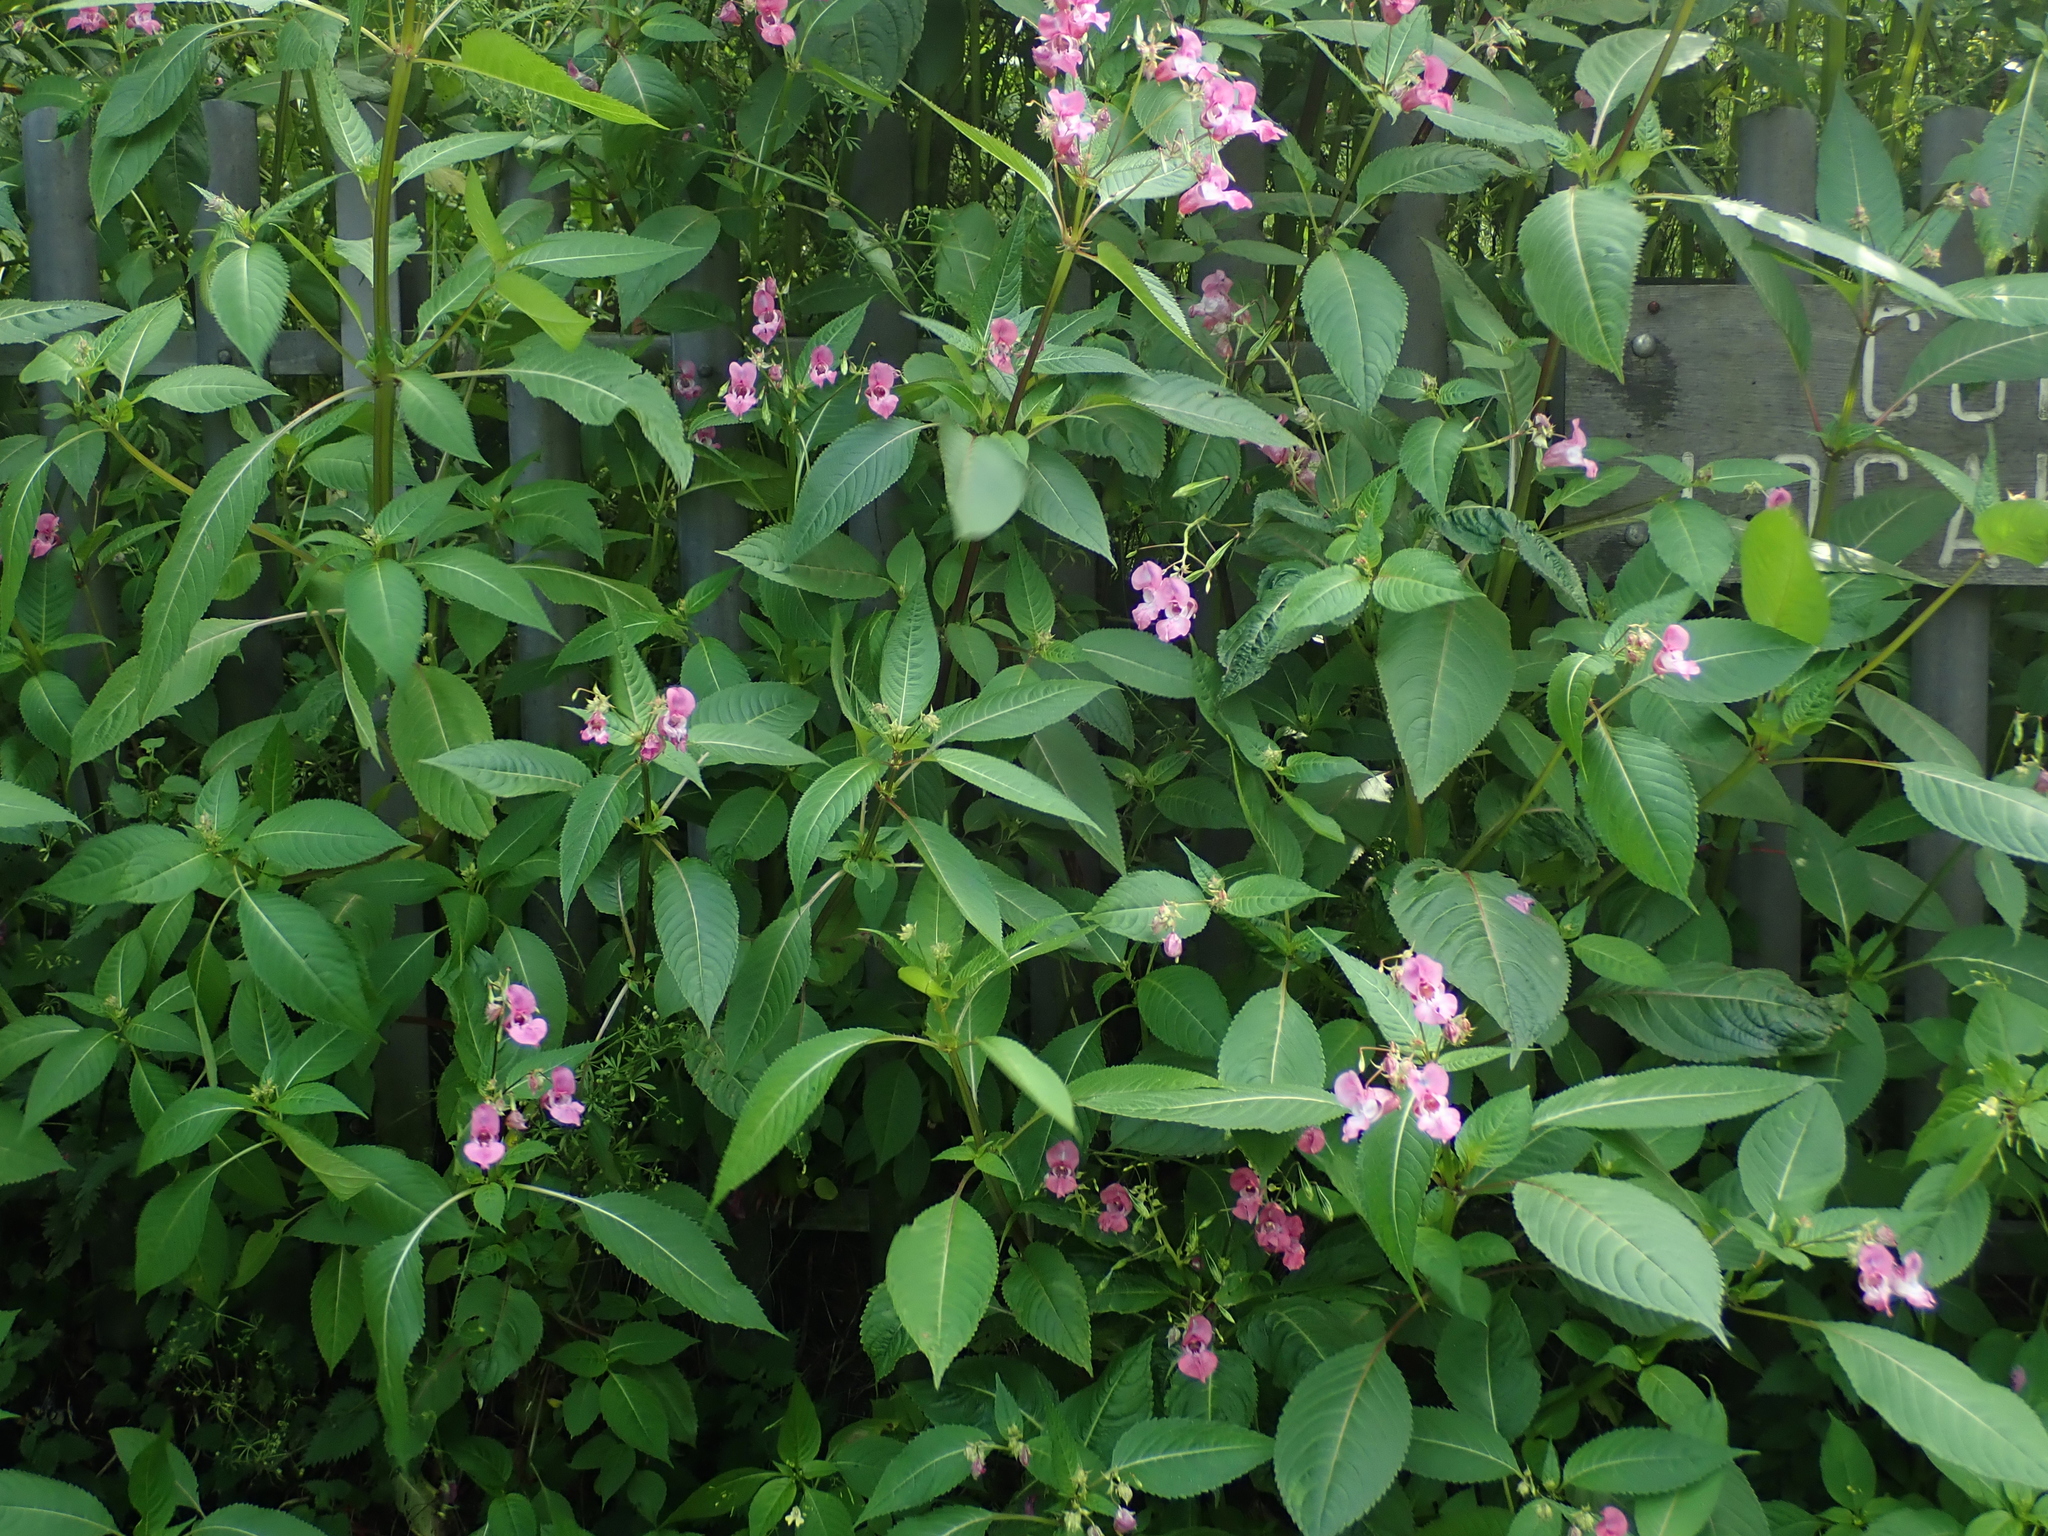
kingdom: Plantae
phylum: Tracheophyta
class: Magnoliopsida
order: Ericales
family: Balsaminaceae
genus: Impatiens
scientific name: Impatiens glandulifera
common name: Himalayan balsam
